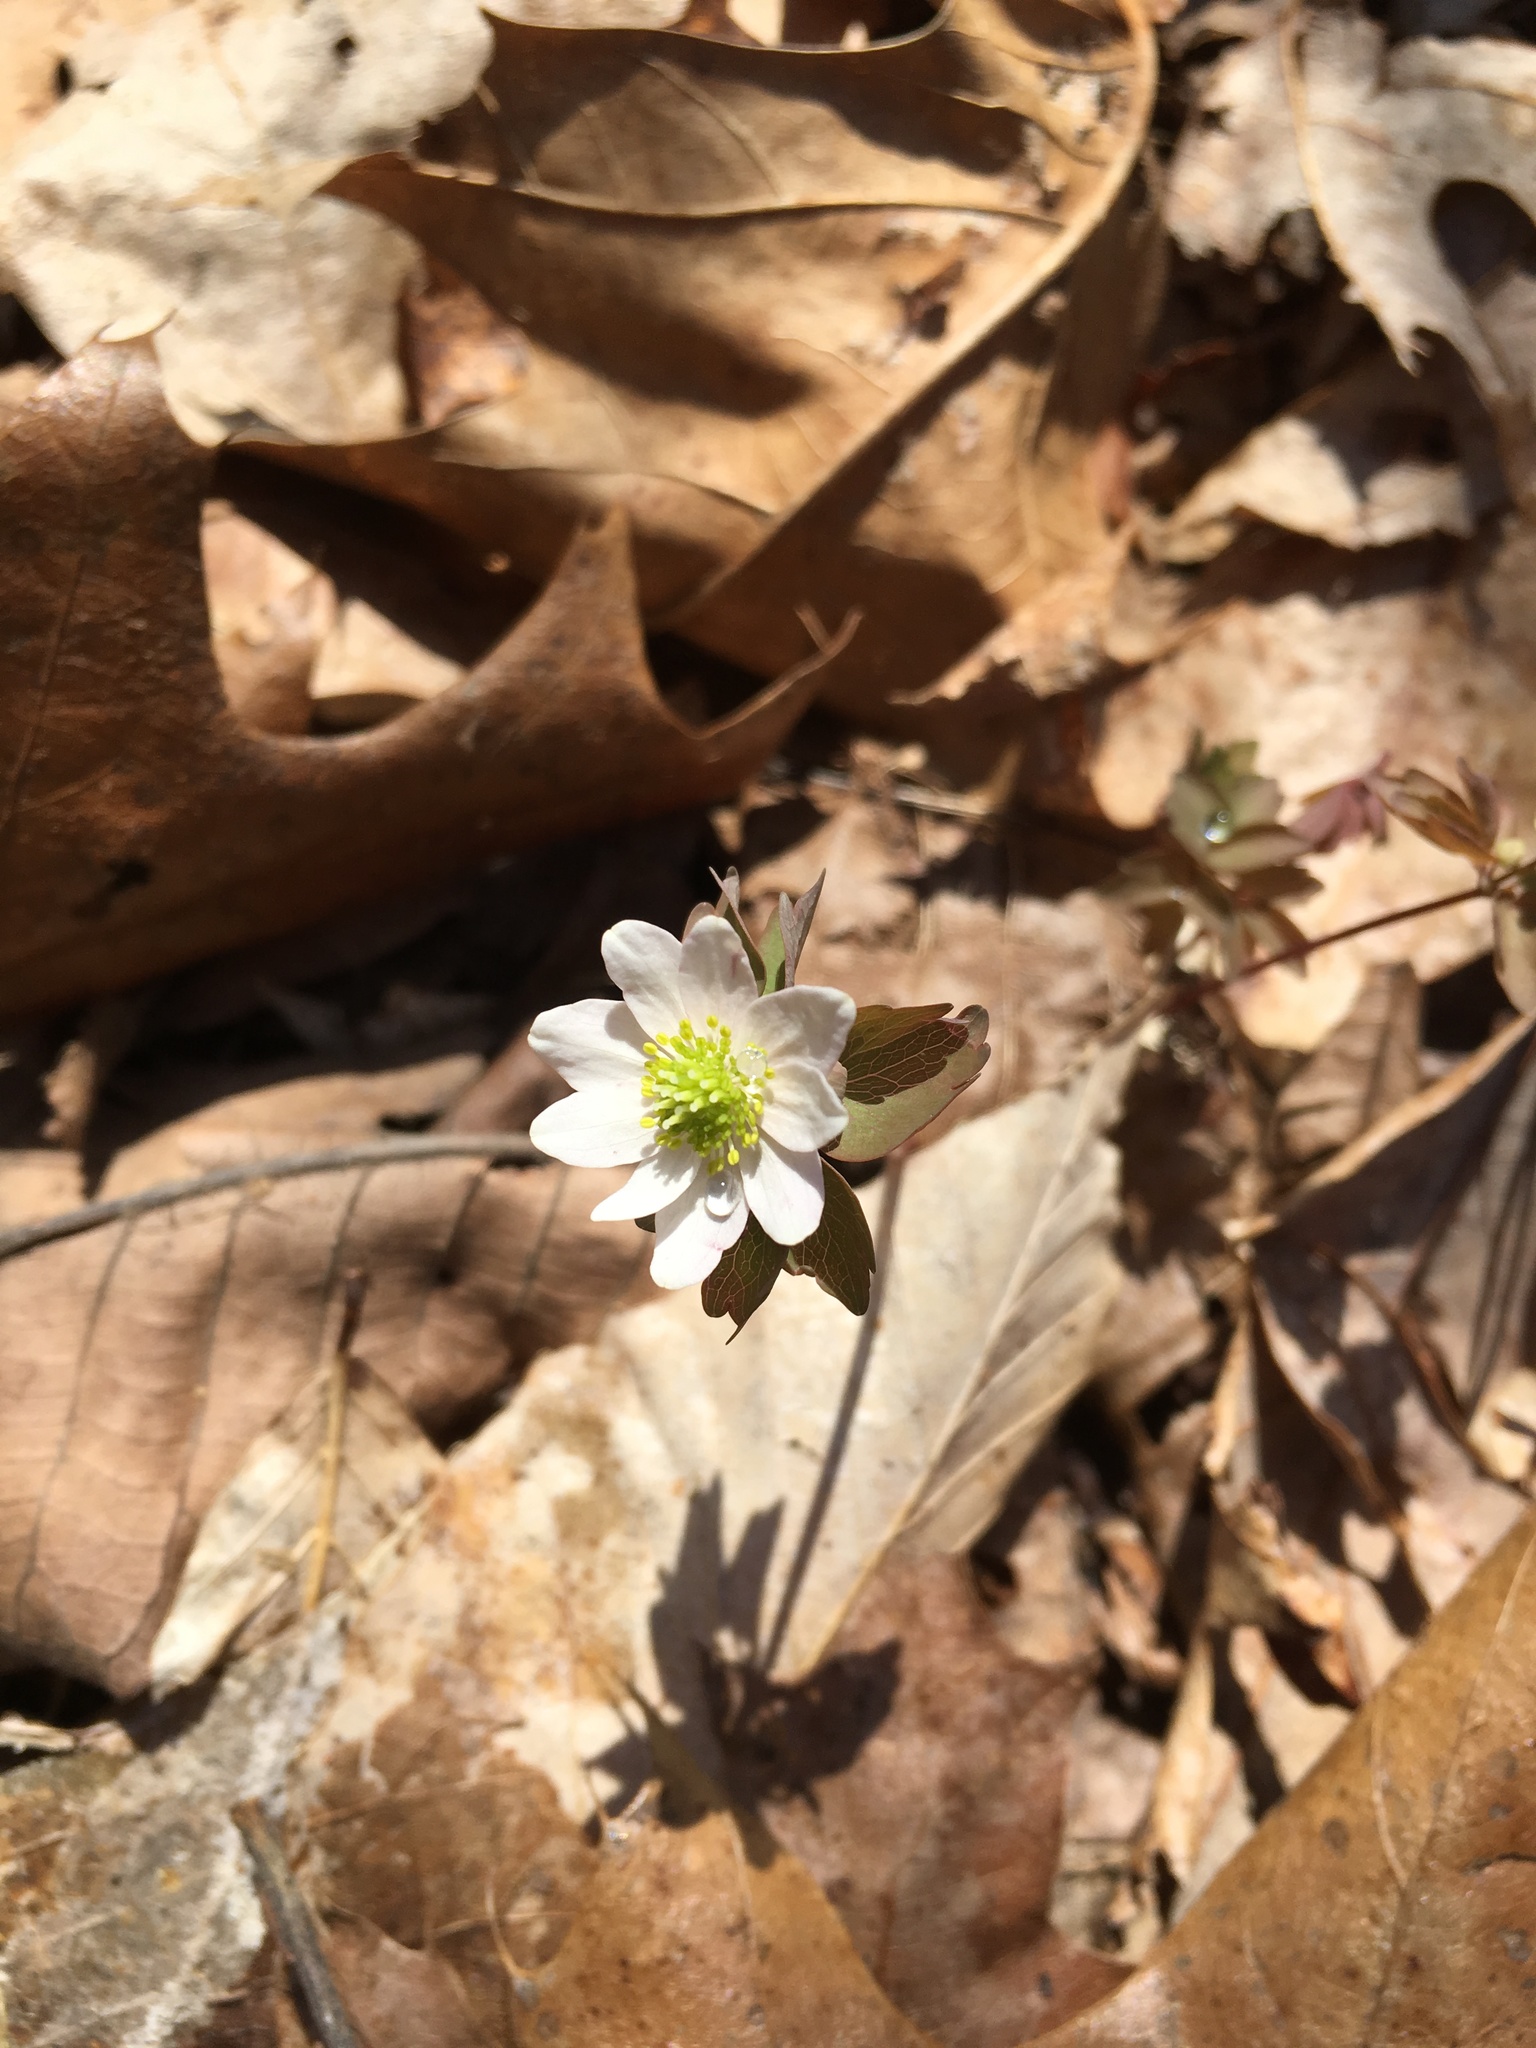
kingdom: Plantae
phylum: Tracheophyta
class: Magnoliopsida
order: Ranunculales
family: Ranunculaceae
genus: Thalictrum
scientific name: Thalictrum thalictroides
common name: Rue-anemone
